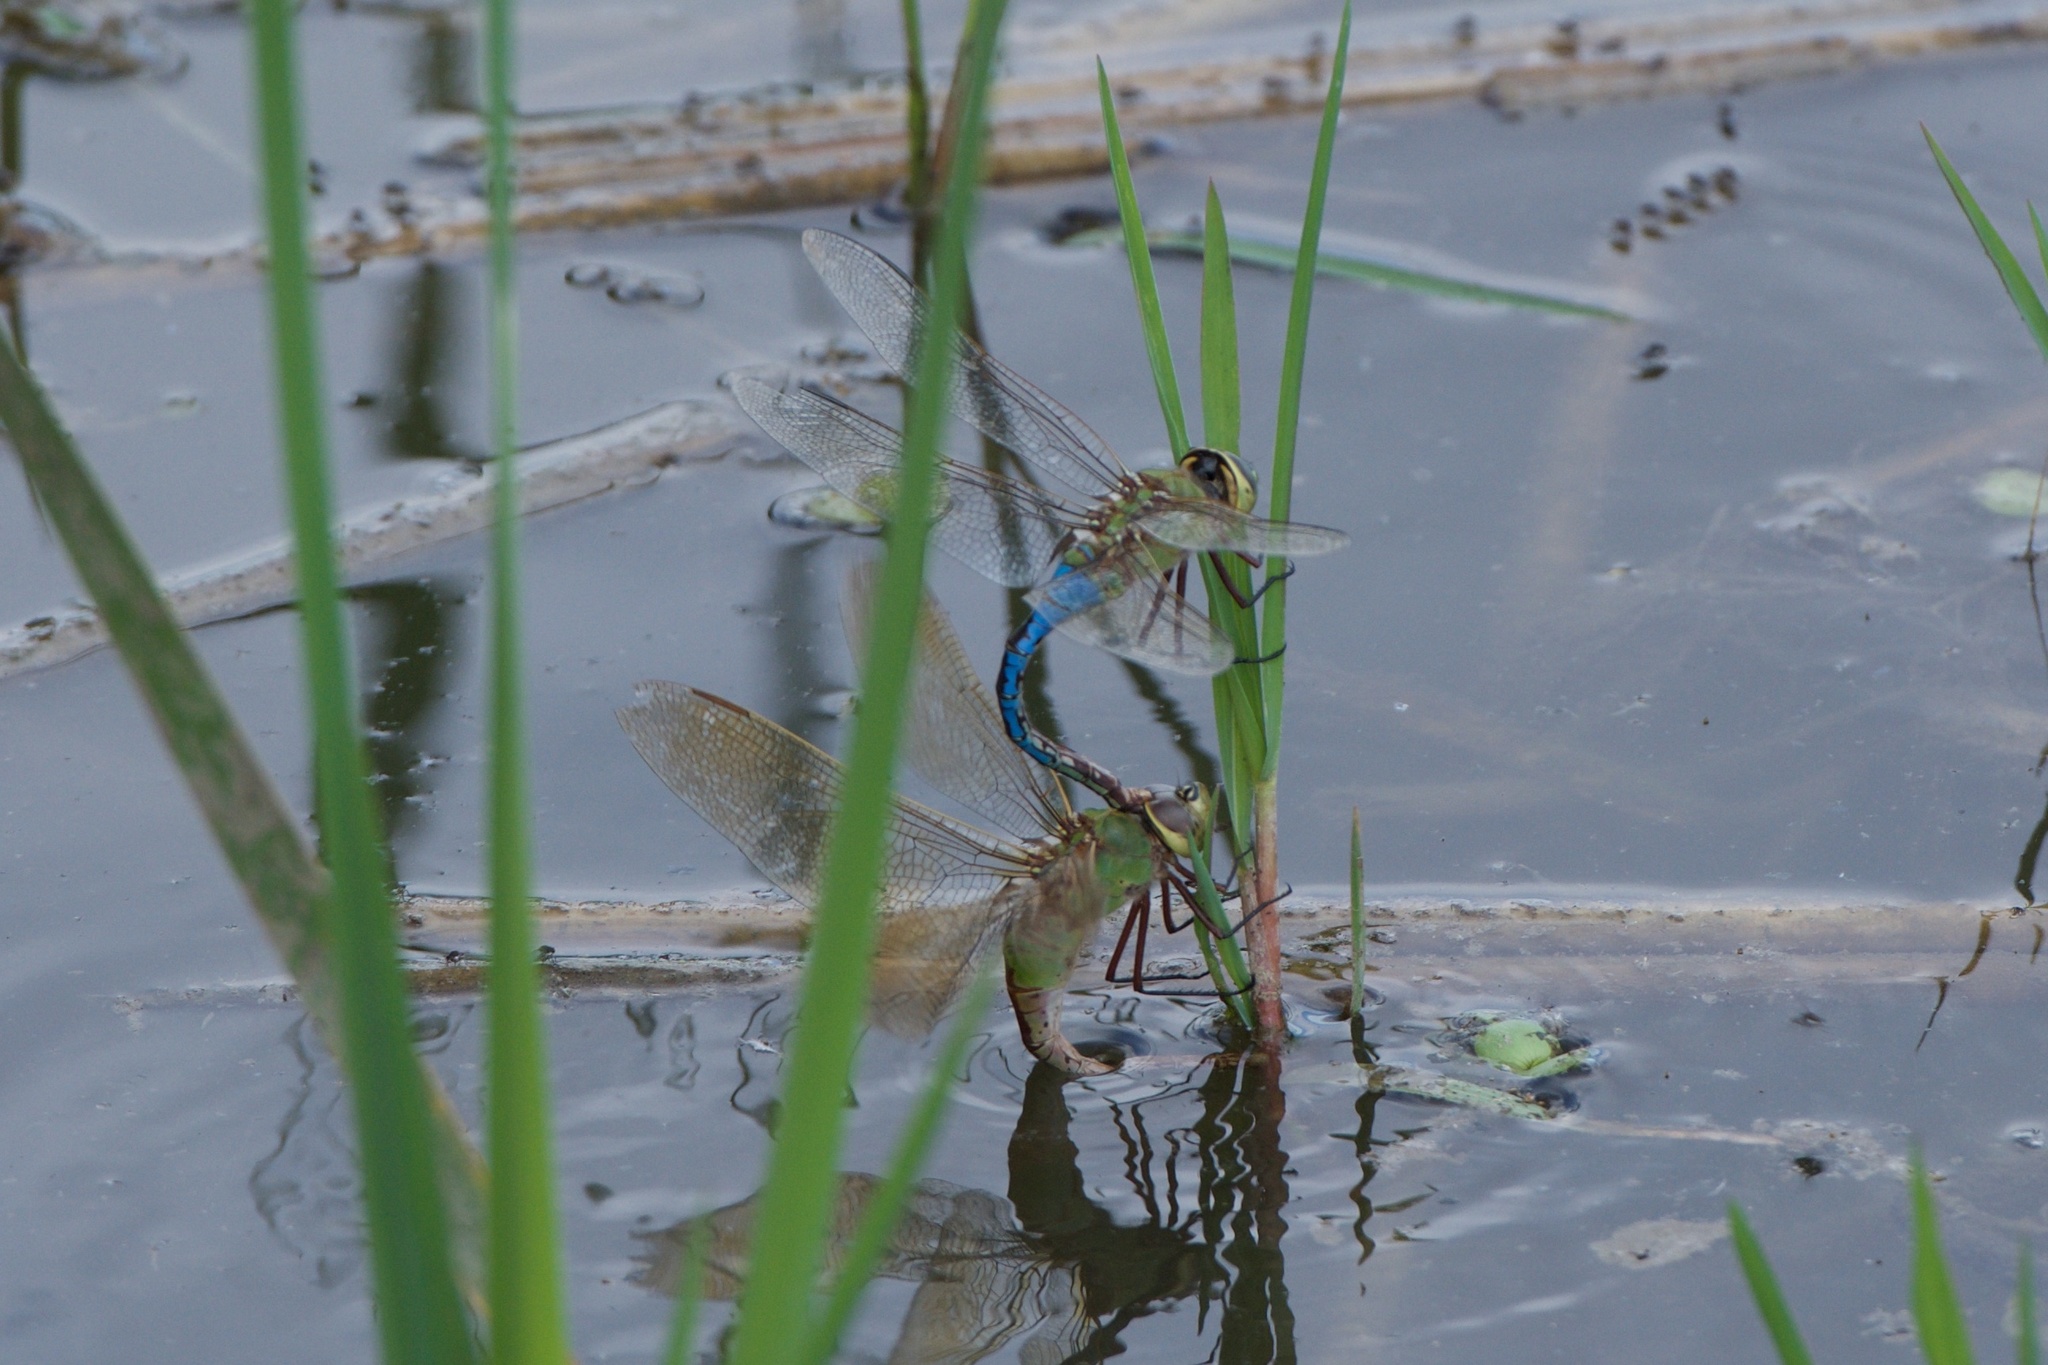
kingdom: Animalia
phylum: Arthropoda
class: Insecta
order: Odonata
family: Aeshnidae
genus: Anax
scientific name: Anax junius
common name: Common green darner
